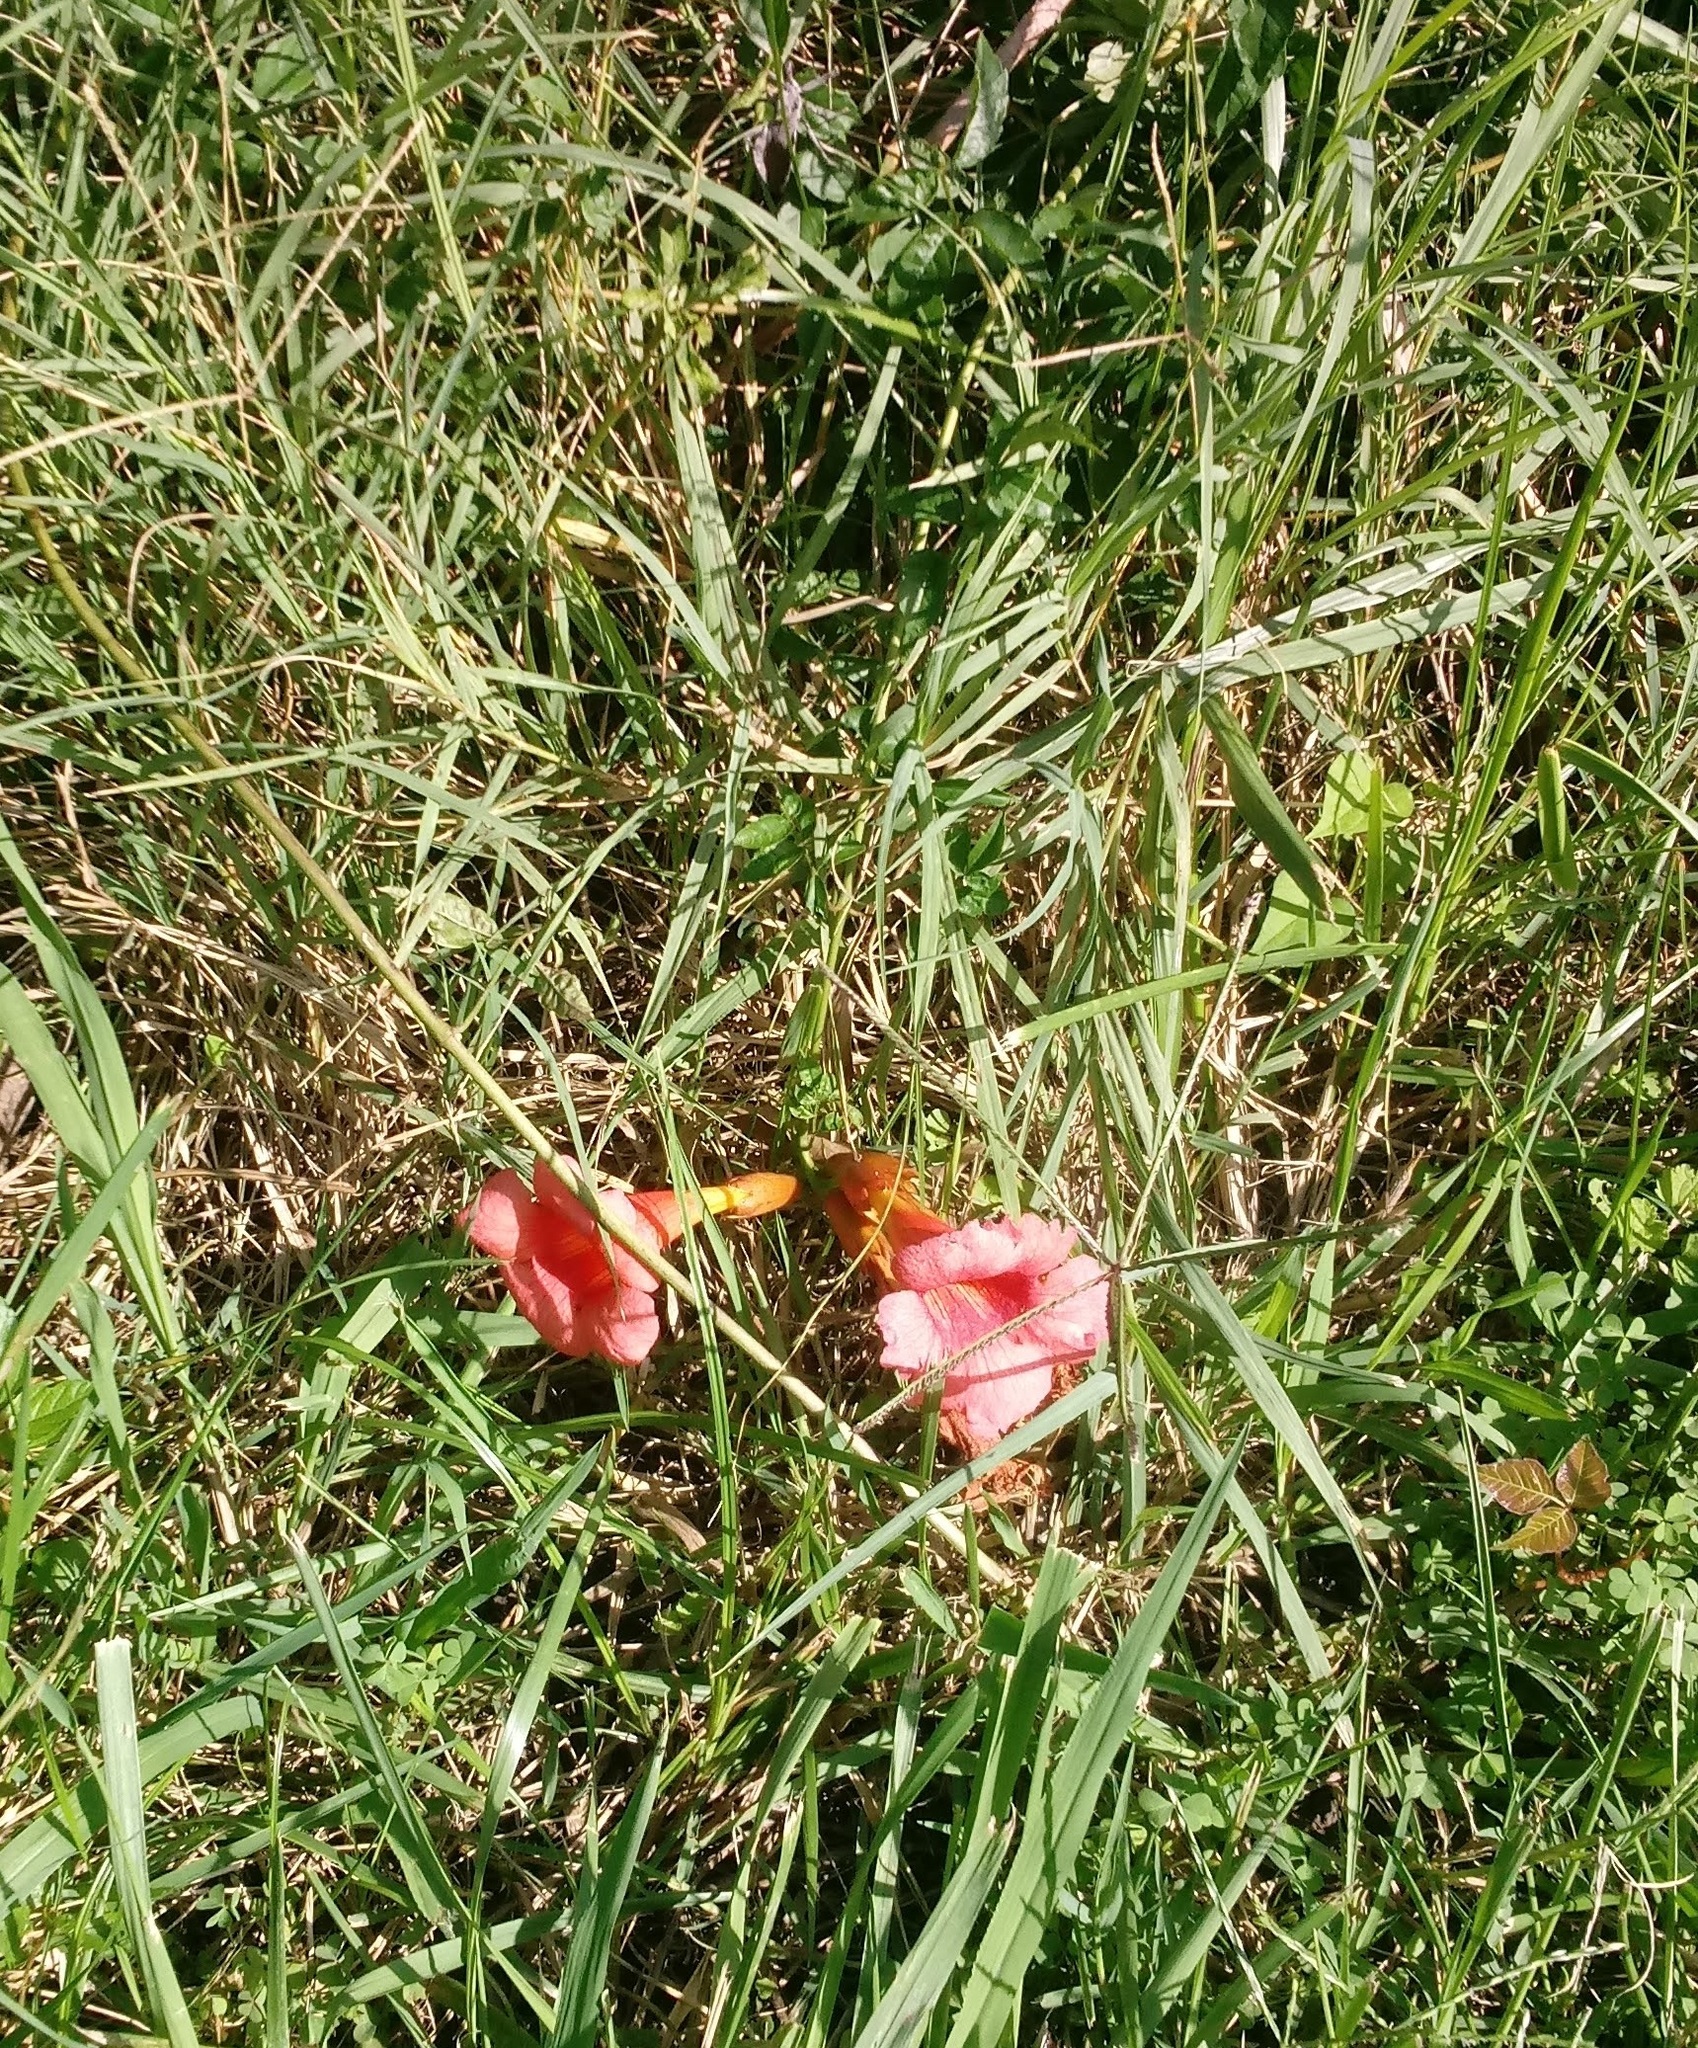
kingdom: Plantae
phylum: Tracheophyta
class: Magnoliopsida
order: Lamiales
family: Bignoniaceae
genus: Campsis
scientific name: Campsis radicans
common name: Trumpet-creeper
